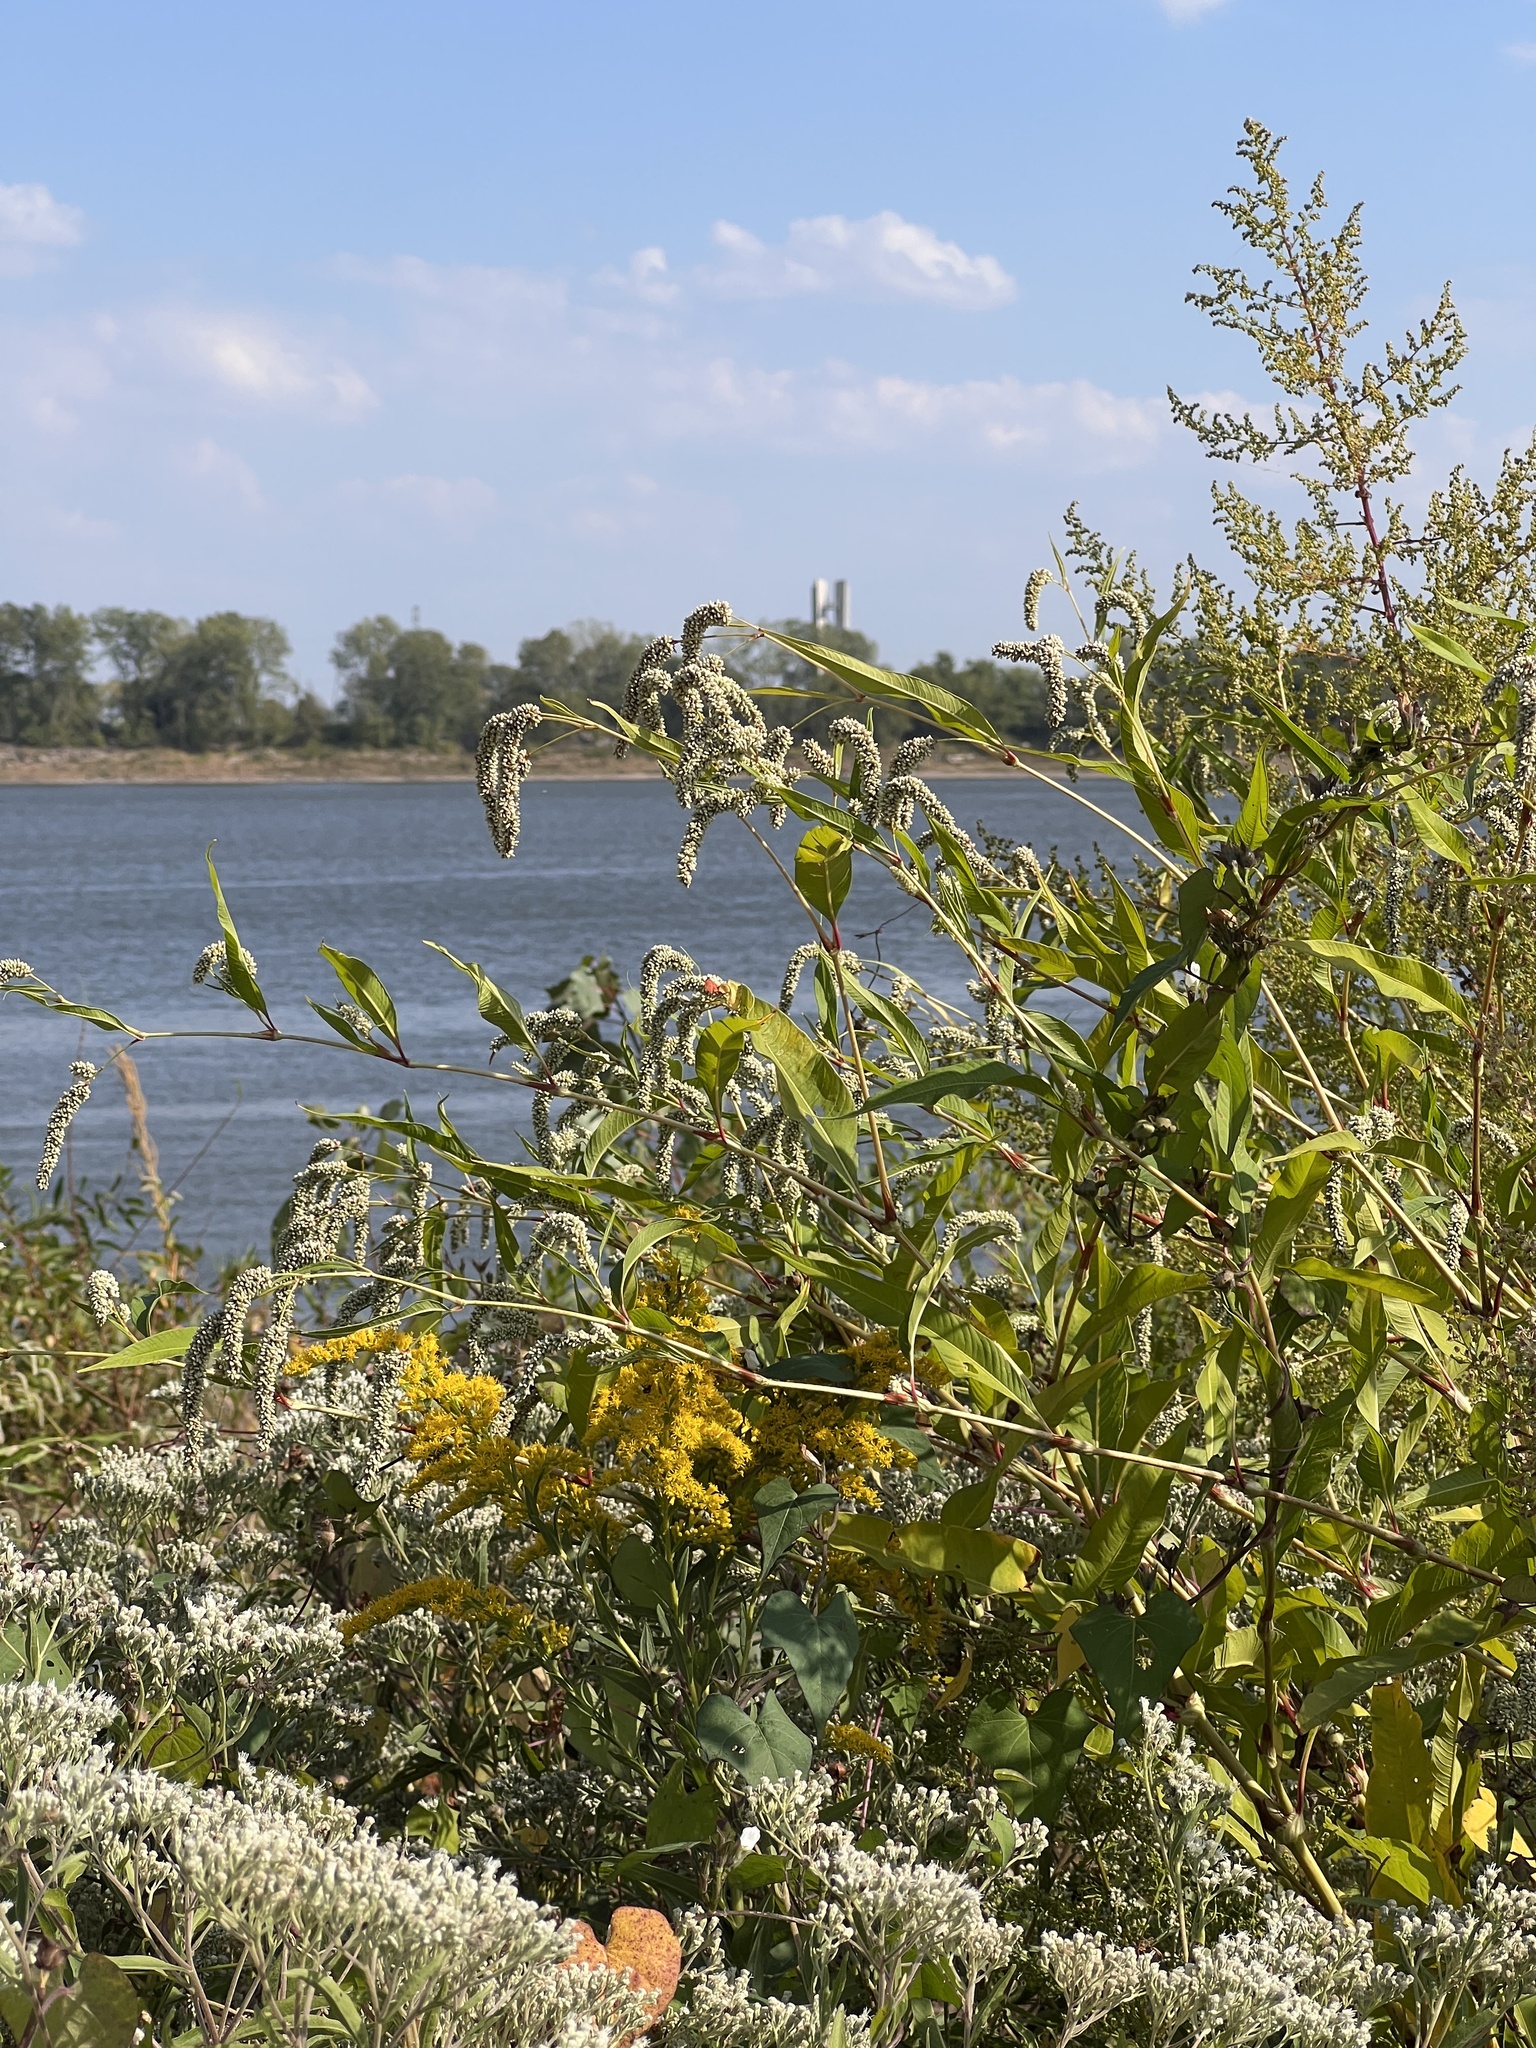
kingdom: Plantae
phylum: Tracheophyta
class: Magnoliopsida
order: Caryophyllales
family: Polygonaceae
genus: Persicaria
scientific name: Persicaria lapathifolia
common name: Curlytop knotweed
